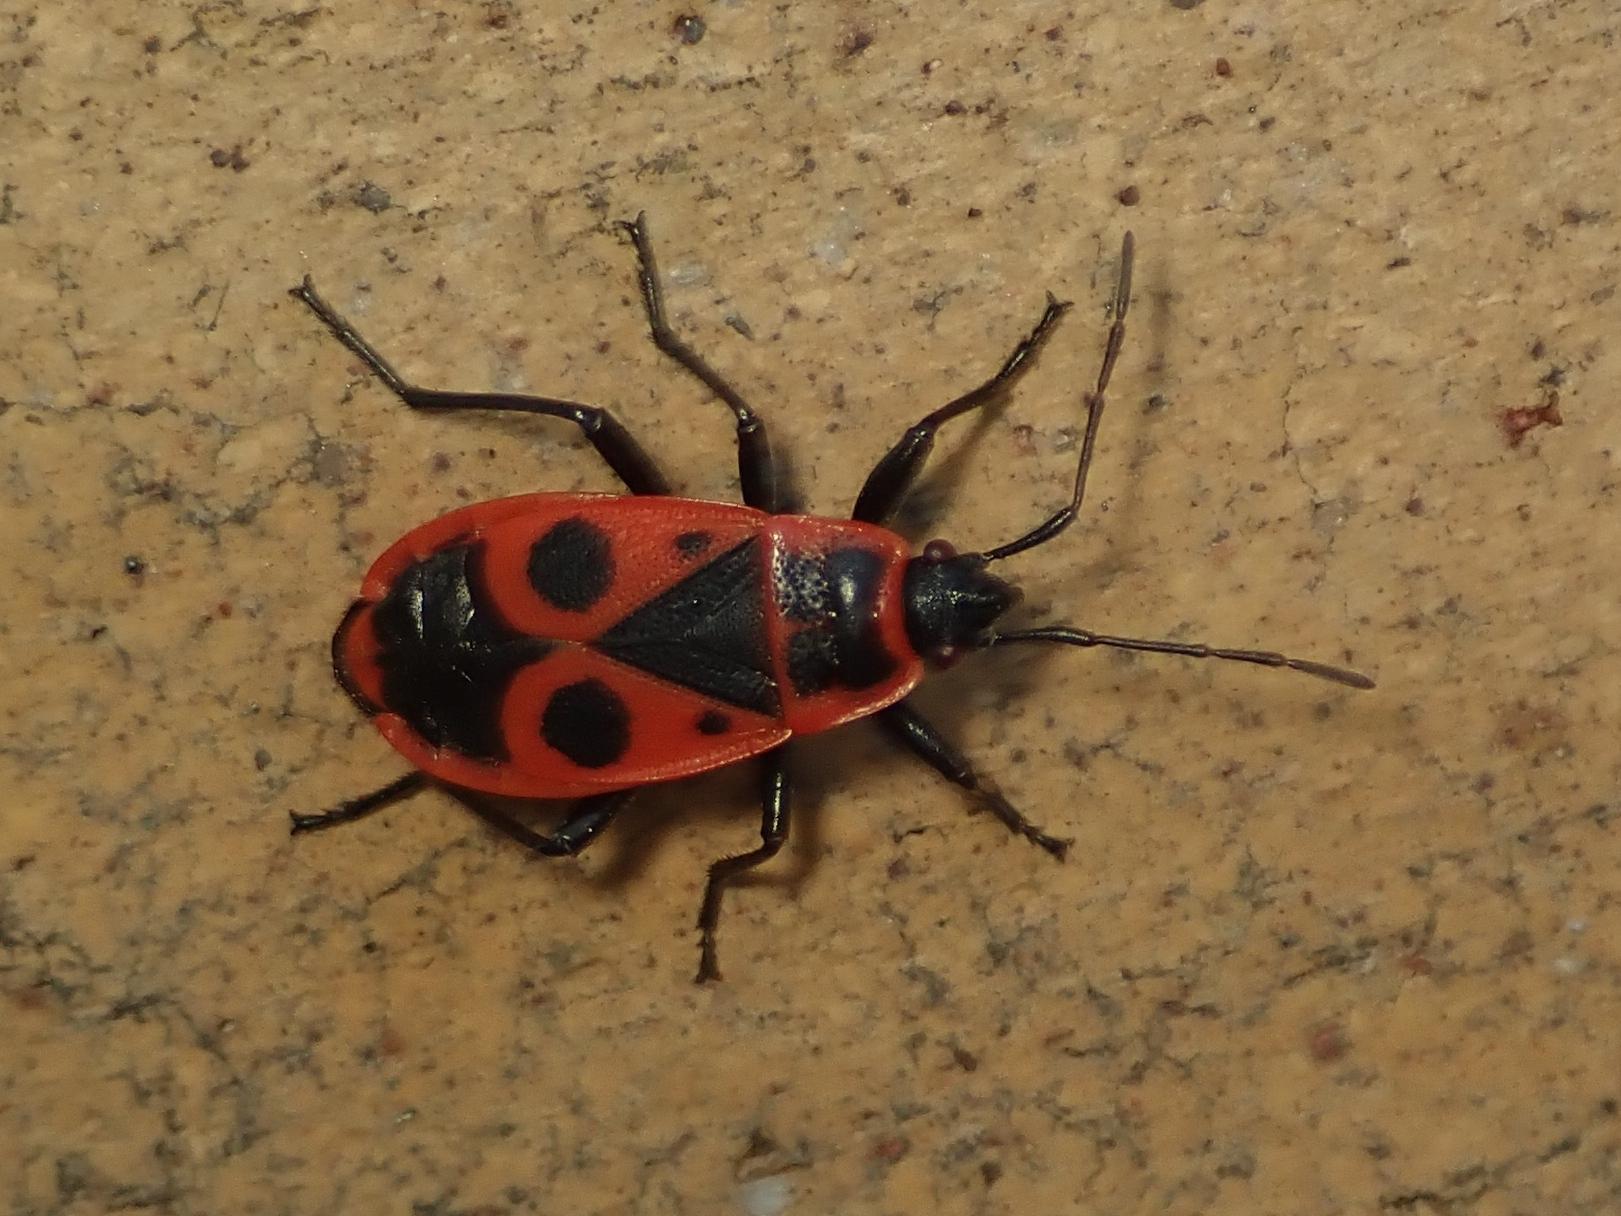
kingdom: Animalia
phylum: Arthropoda
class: Insecta
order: Hemiptera
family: Pyrrhocoridae
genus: Pyrrhocoris
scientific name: Pyrrhocoris apterus
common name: Firebug
